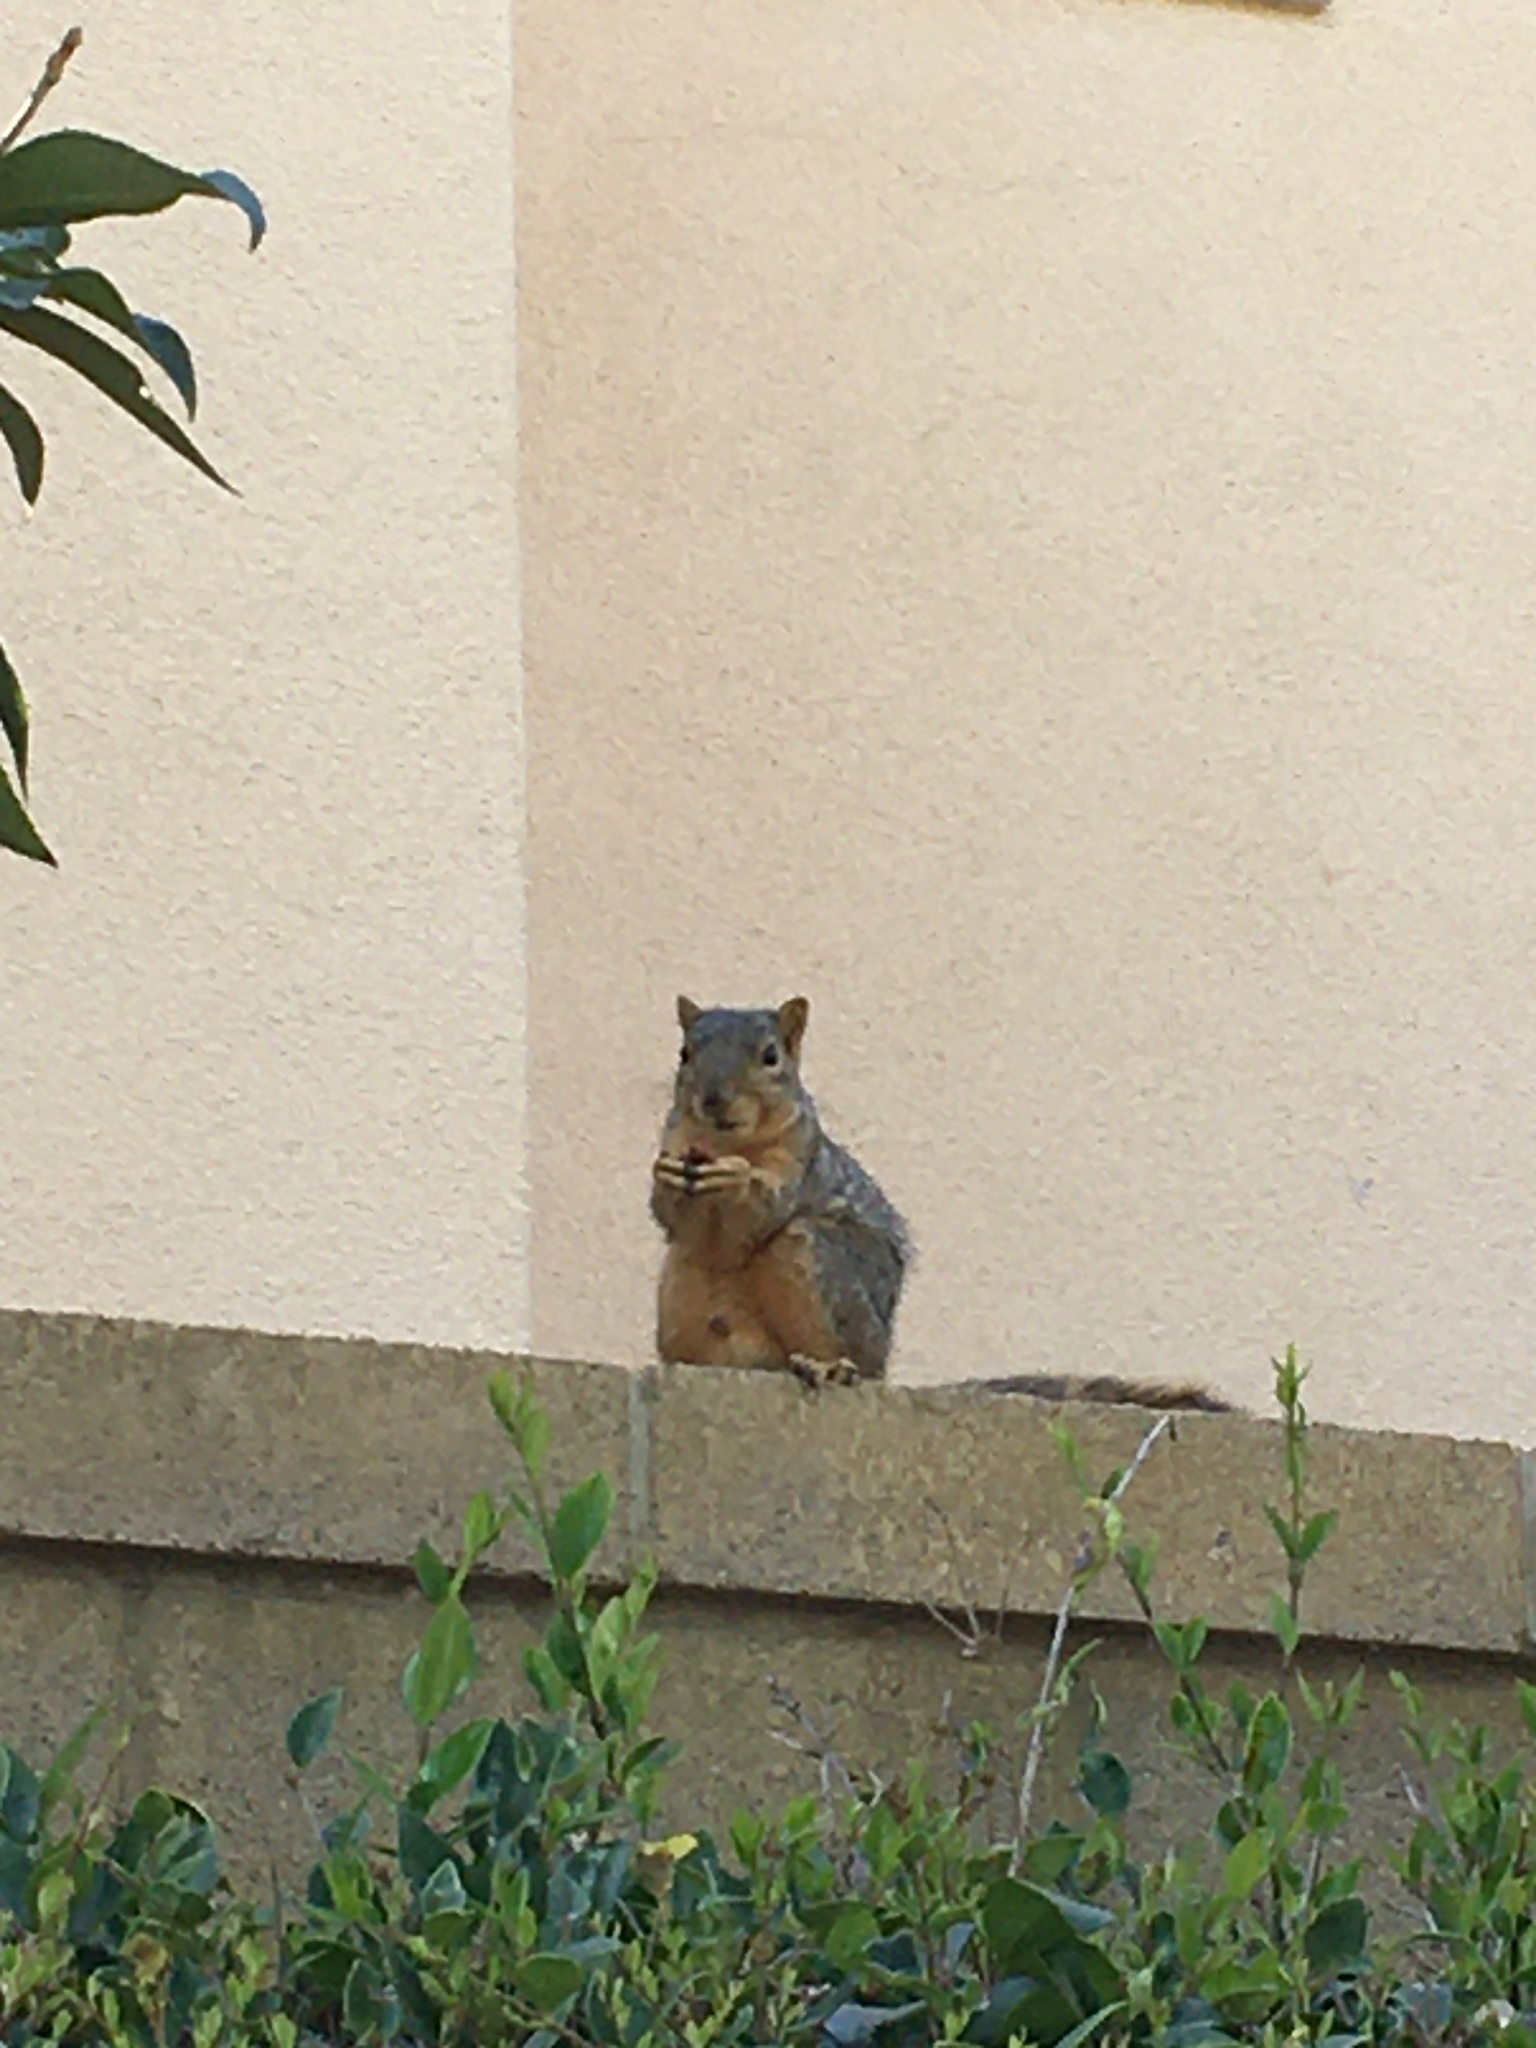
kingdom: Animalia
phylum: Chordata
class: Mammalia
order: Rodentia
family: Sciuridae
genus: Sciurus
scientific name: Sciurus niger
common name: Fox squirrel
